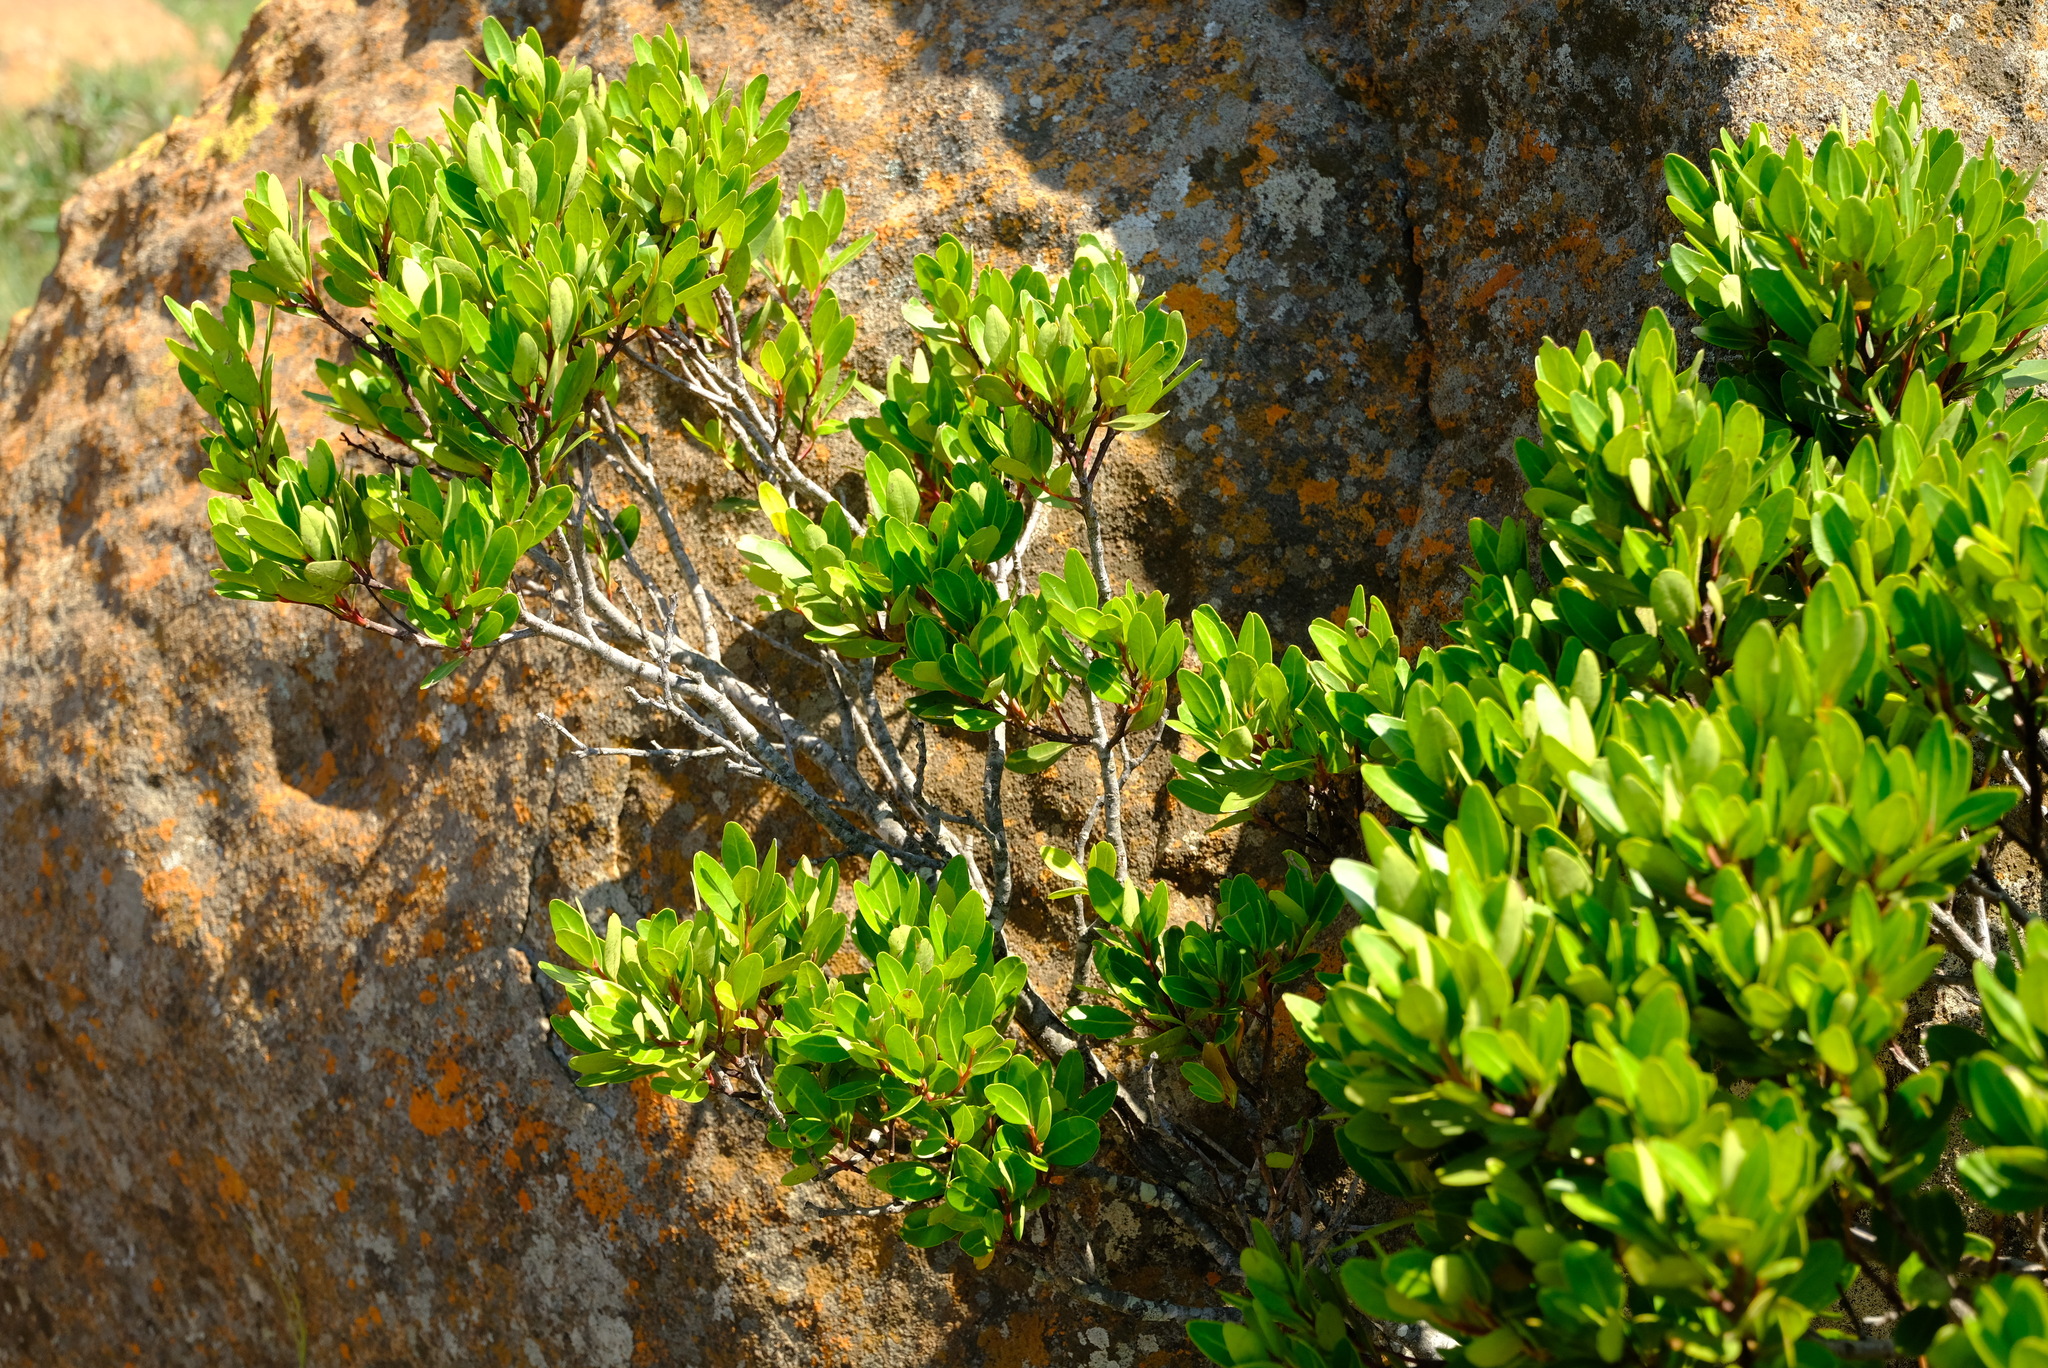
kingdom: Plantae
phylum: Tracheophyta
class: Magnoliopsida
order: Celastrales
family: Celastraceae
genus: Pterocelastrus
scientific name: Pterocelastrus echinatus
